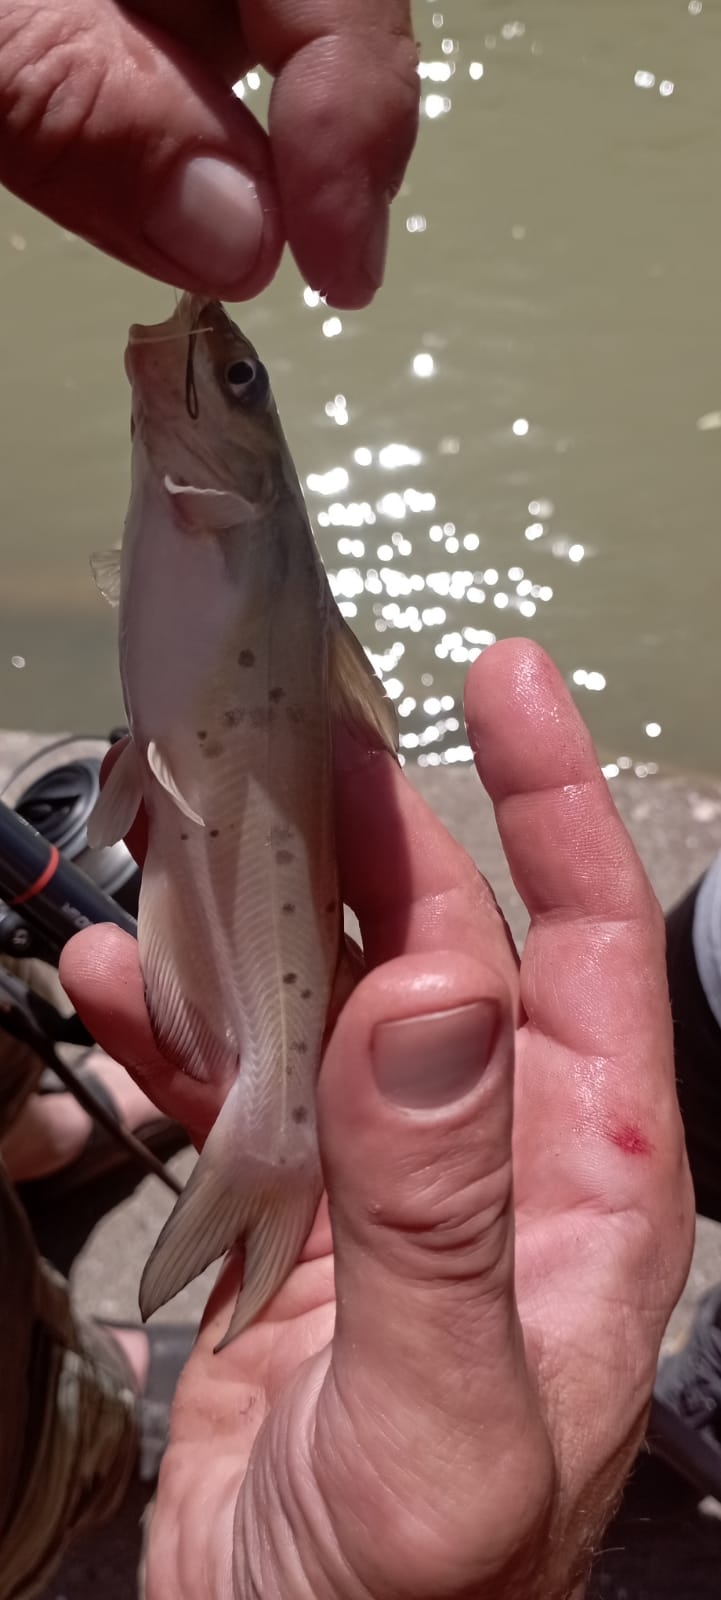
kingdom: Animalia
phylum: Chordata
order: Siluriformes
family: Ictaluridae
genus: Ictalurus
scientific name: Ictalurus punctatus
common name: Channel catfish
